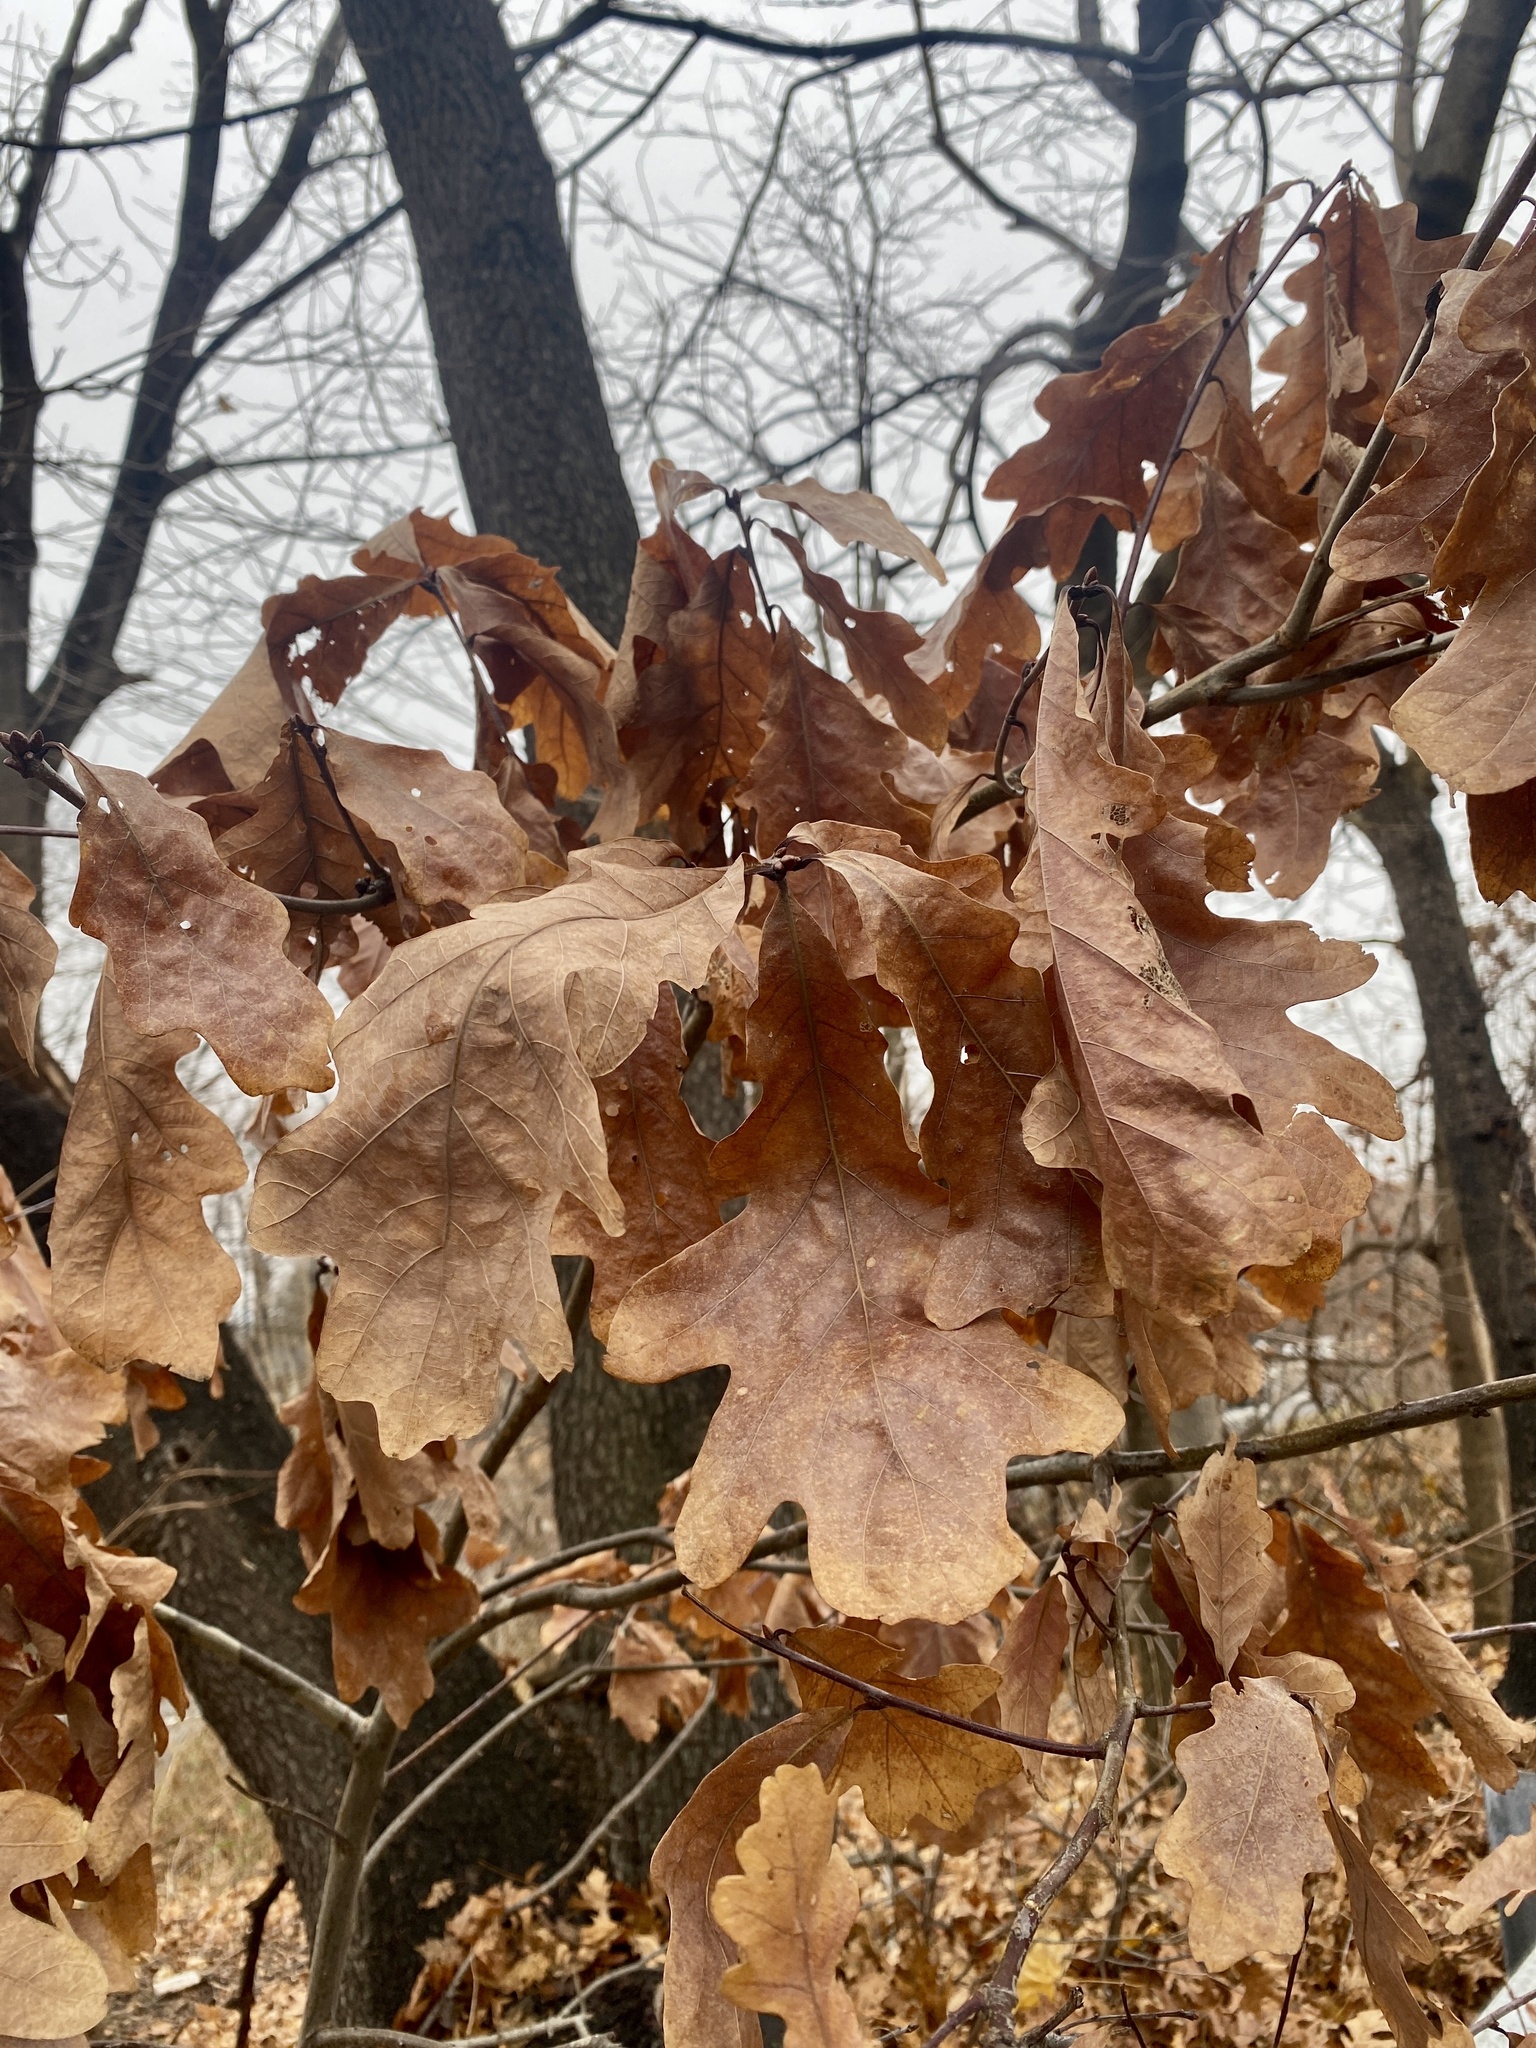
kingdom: Plantae
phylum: Tracheophyta
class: Magnoliopsida
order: Fagales
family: Fagaceae
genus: Quercus
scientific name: Quercus alba
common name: White oak
